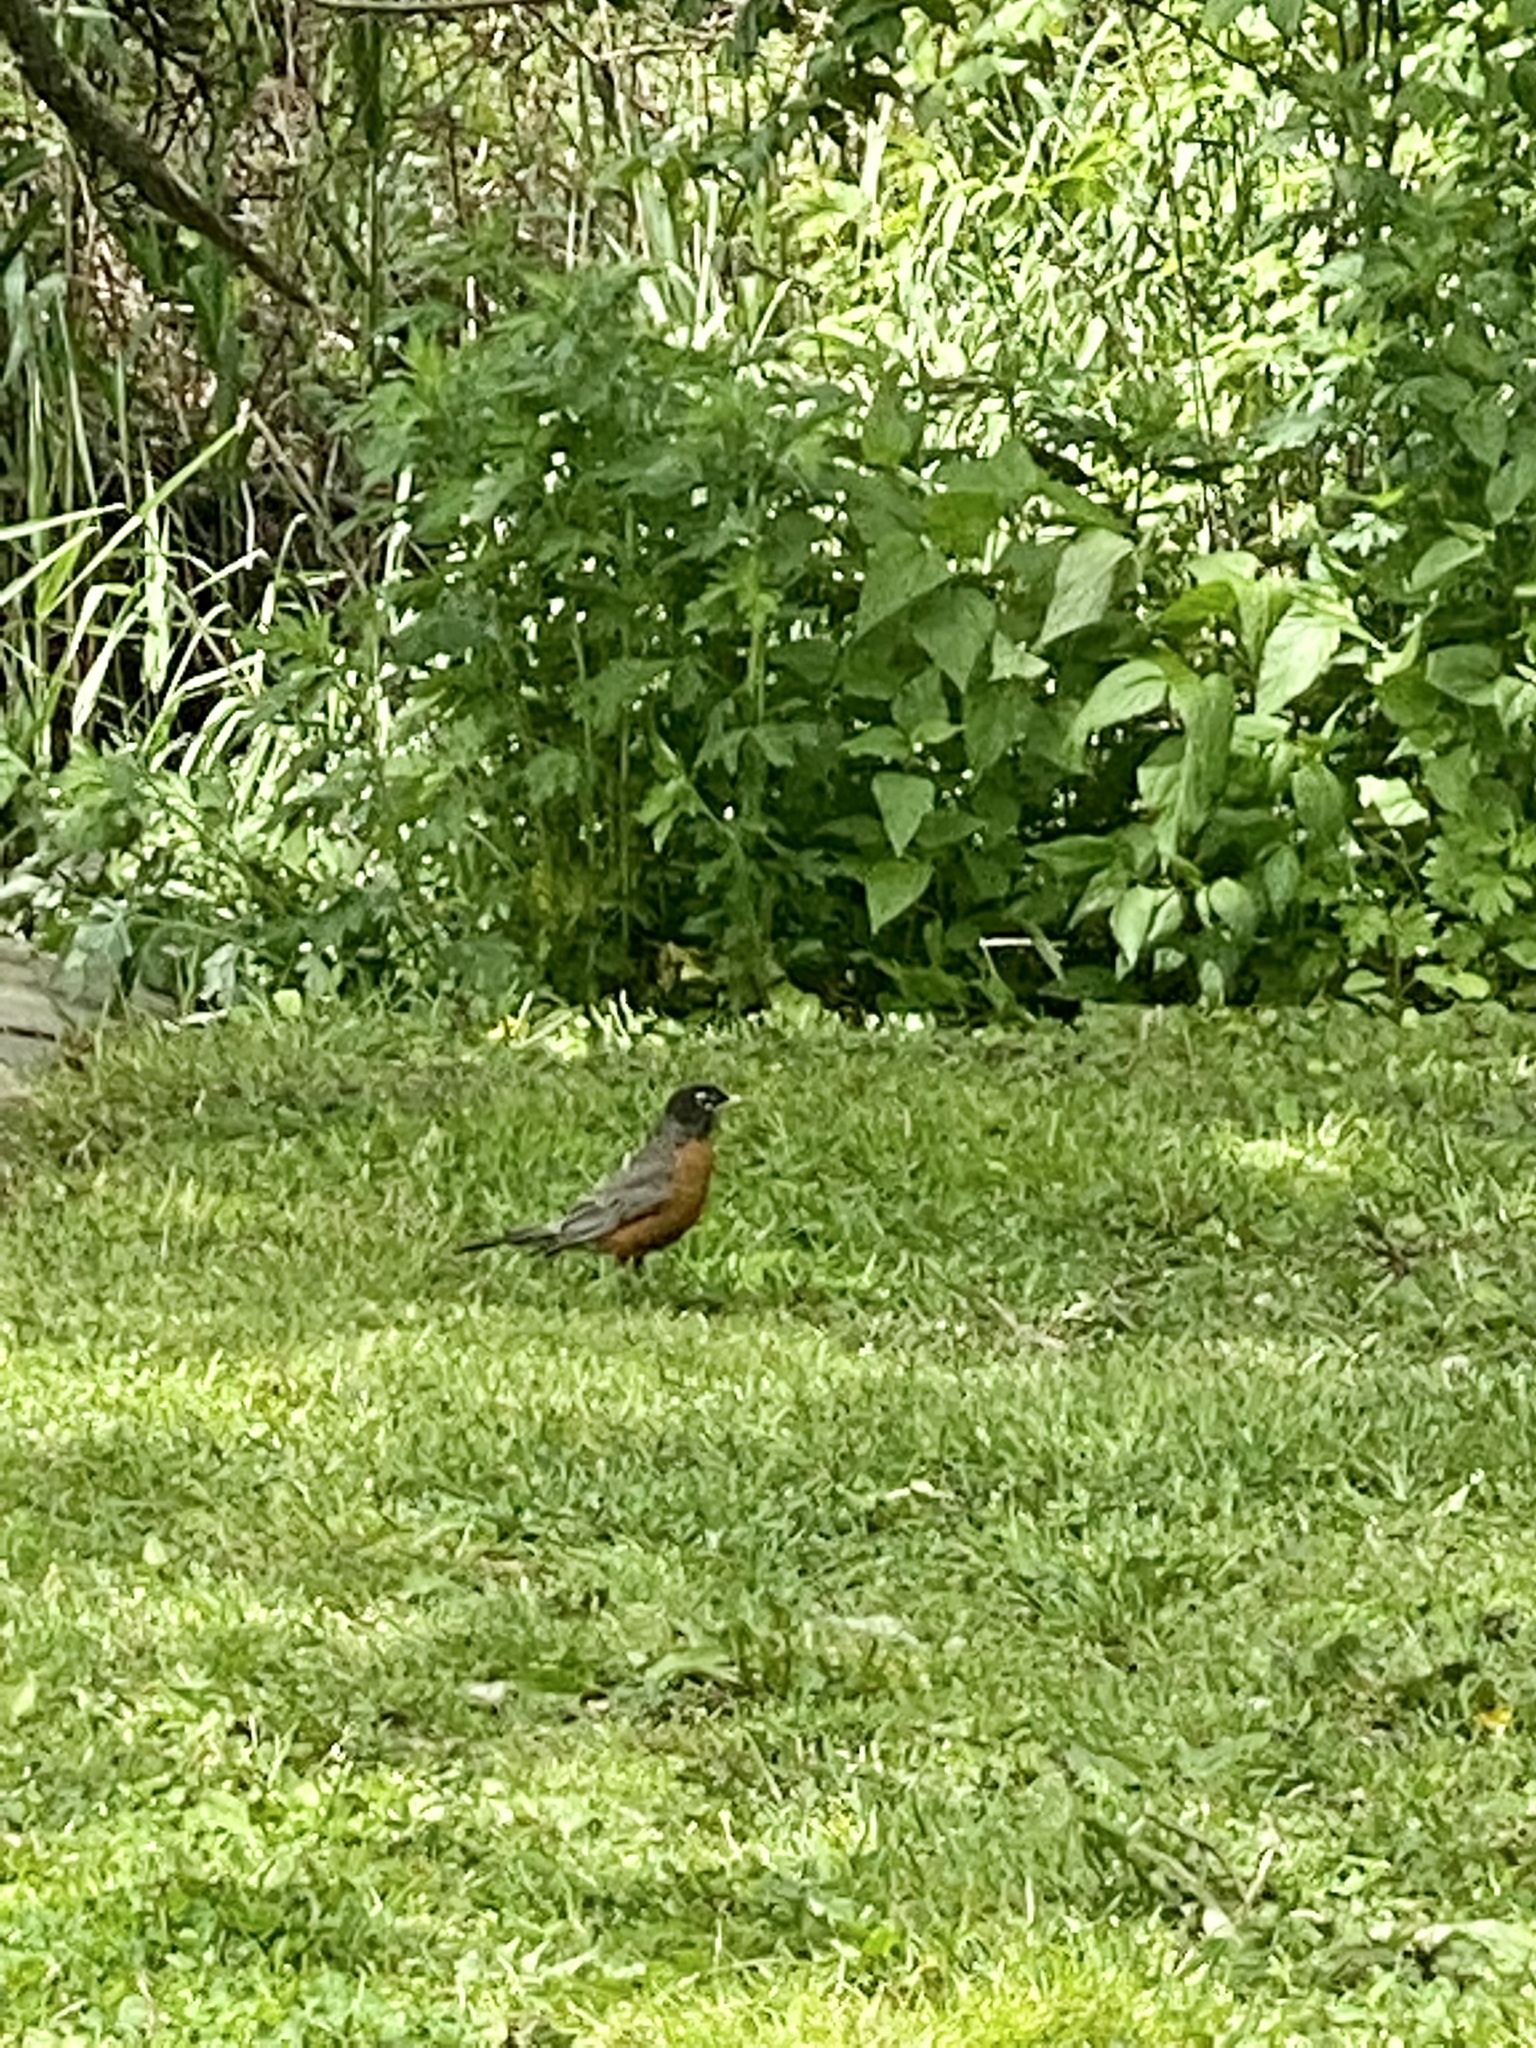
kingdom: Animalia
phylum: Chordata
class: Aves
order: Passeriformes
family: Turdidae
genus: Turdus
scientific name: Turdus migratorius
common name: American robin
